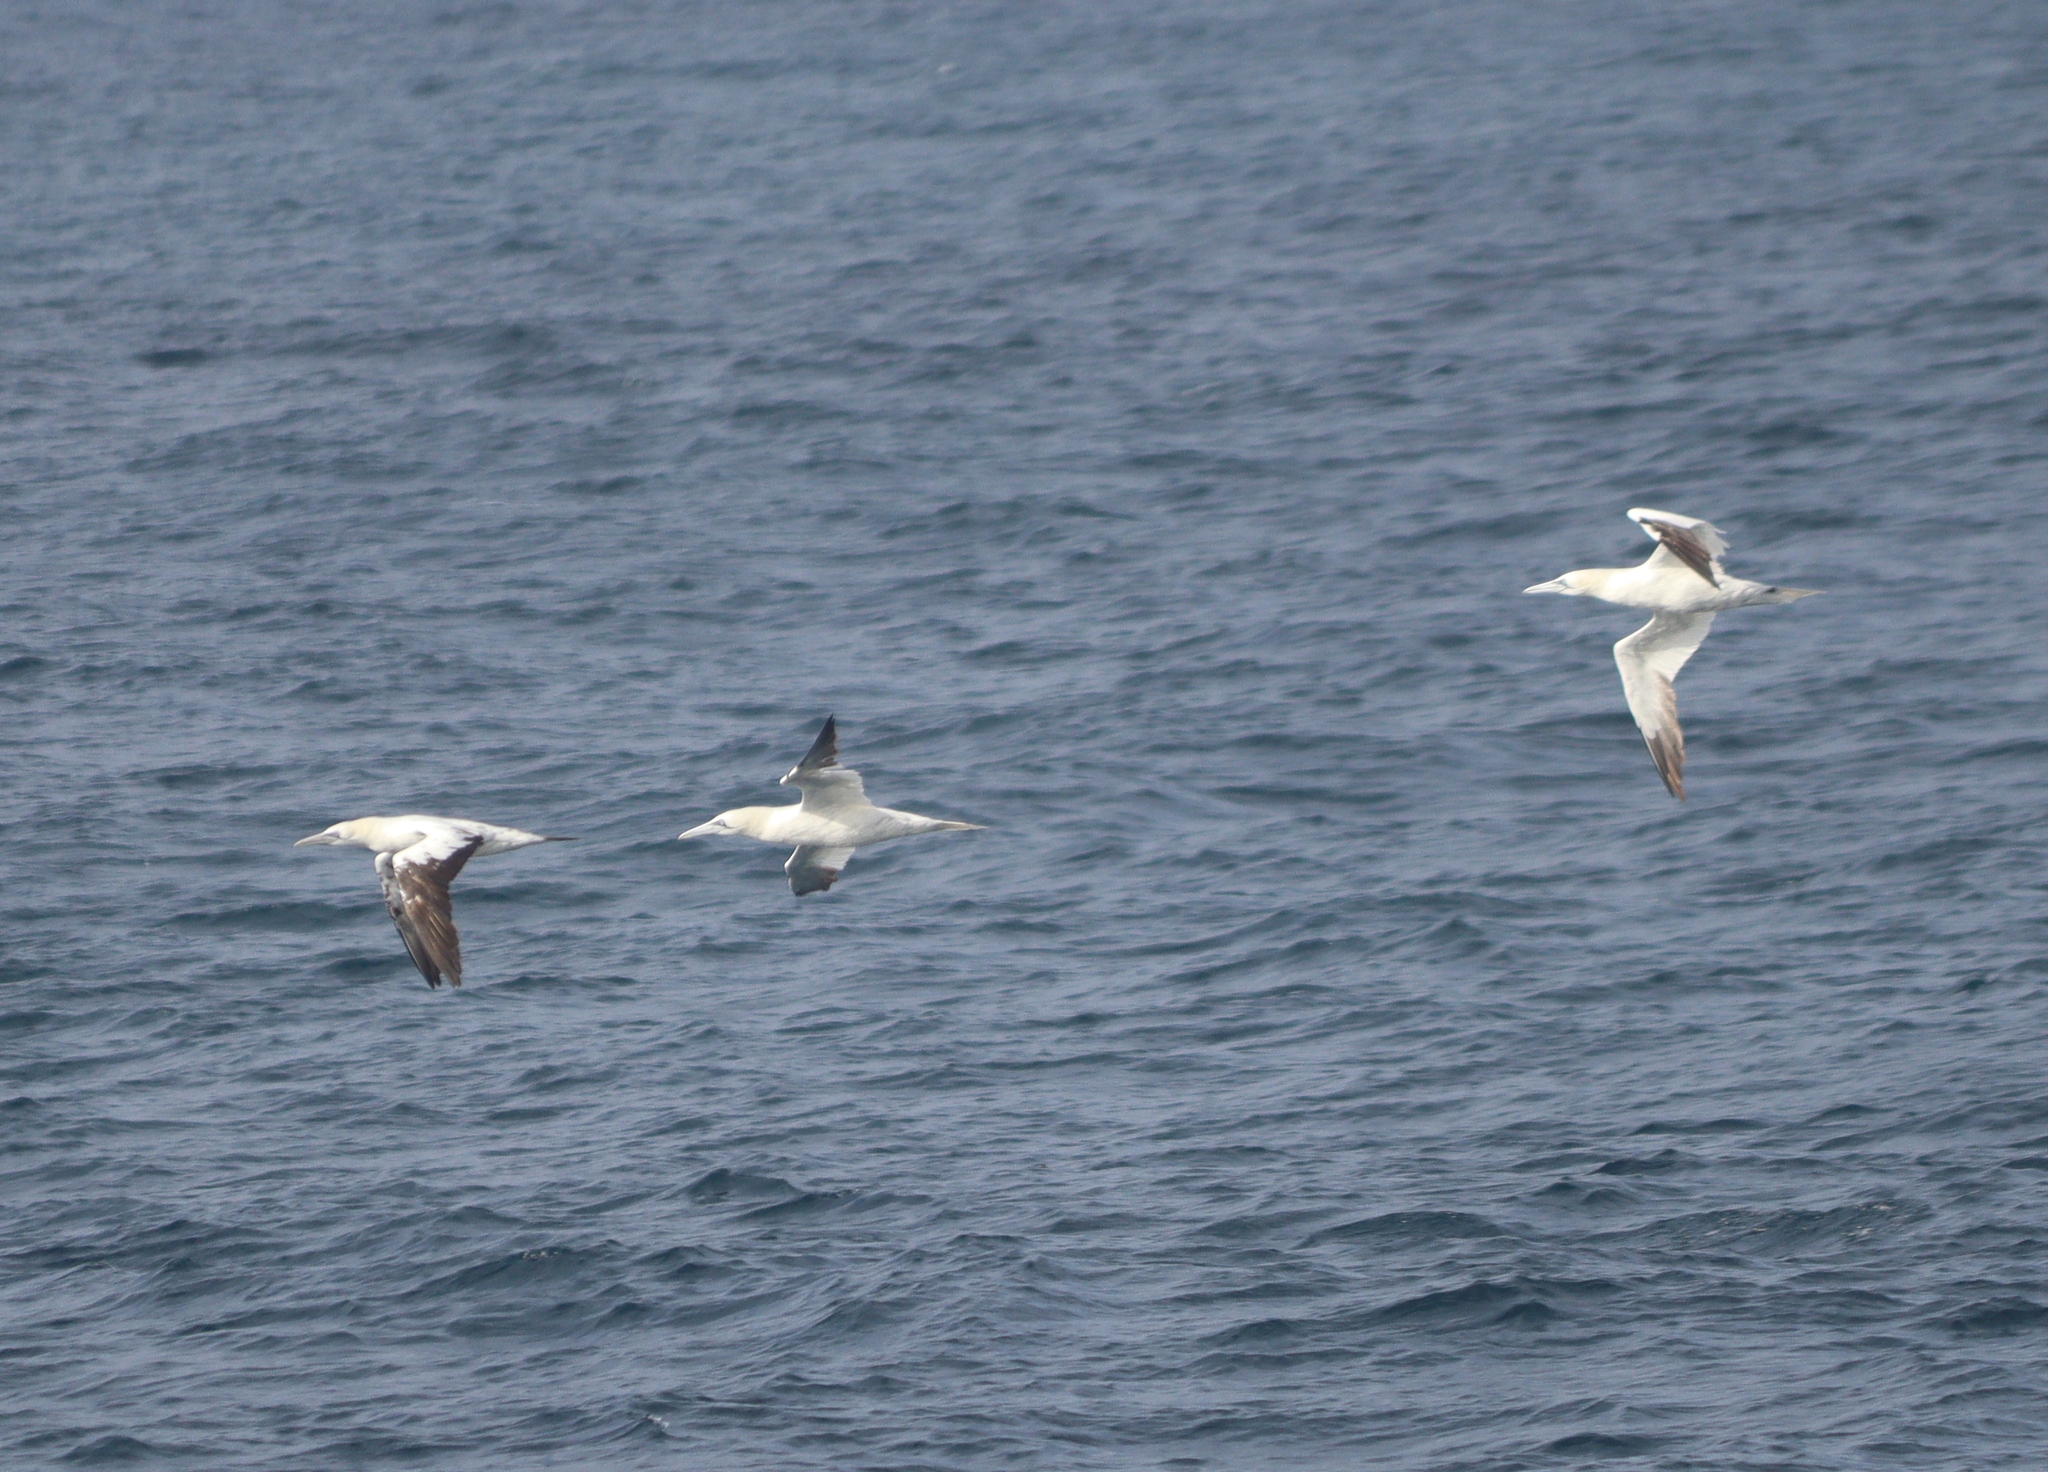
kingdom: Animalia
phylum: Chordata
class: Aves
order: Suliformes
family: Sulidae
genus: Morus
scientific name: Morus bassanus
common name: Northern gannet
